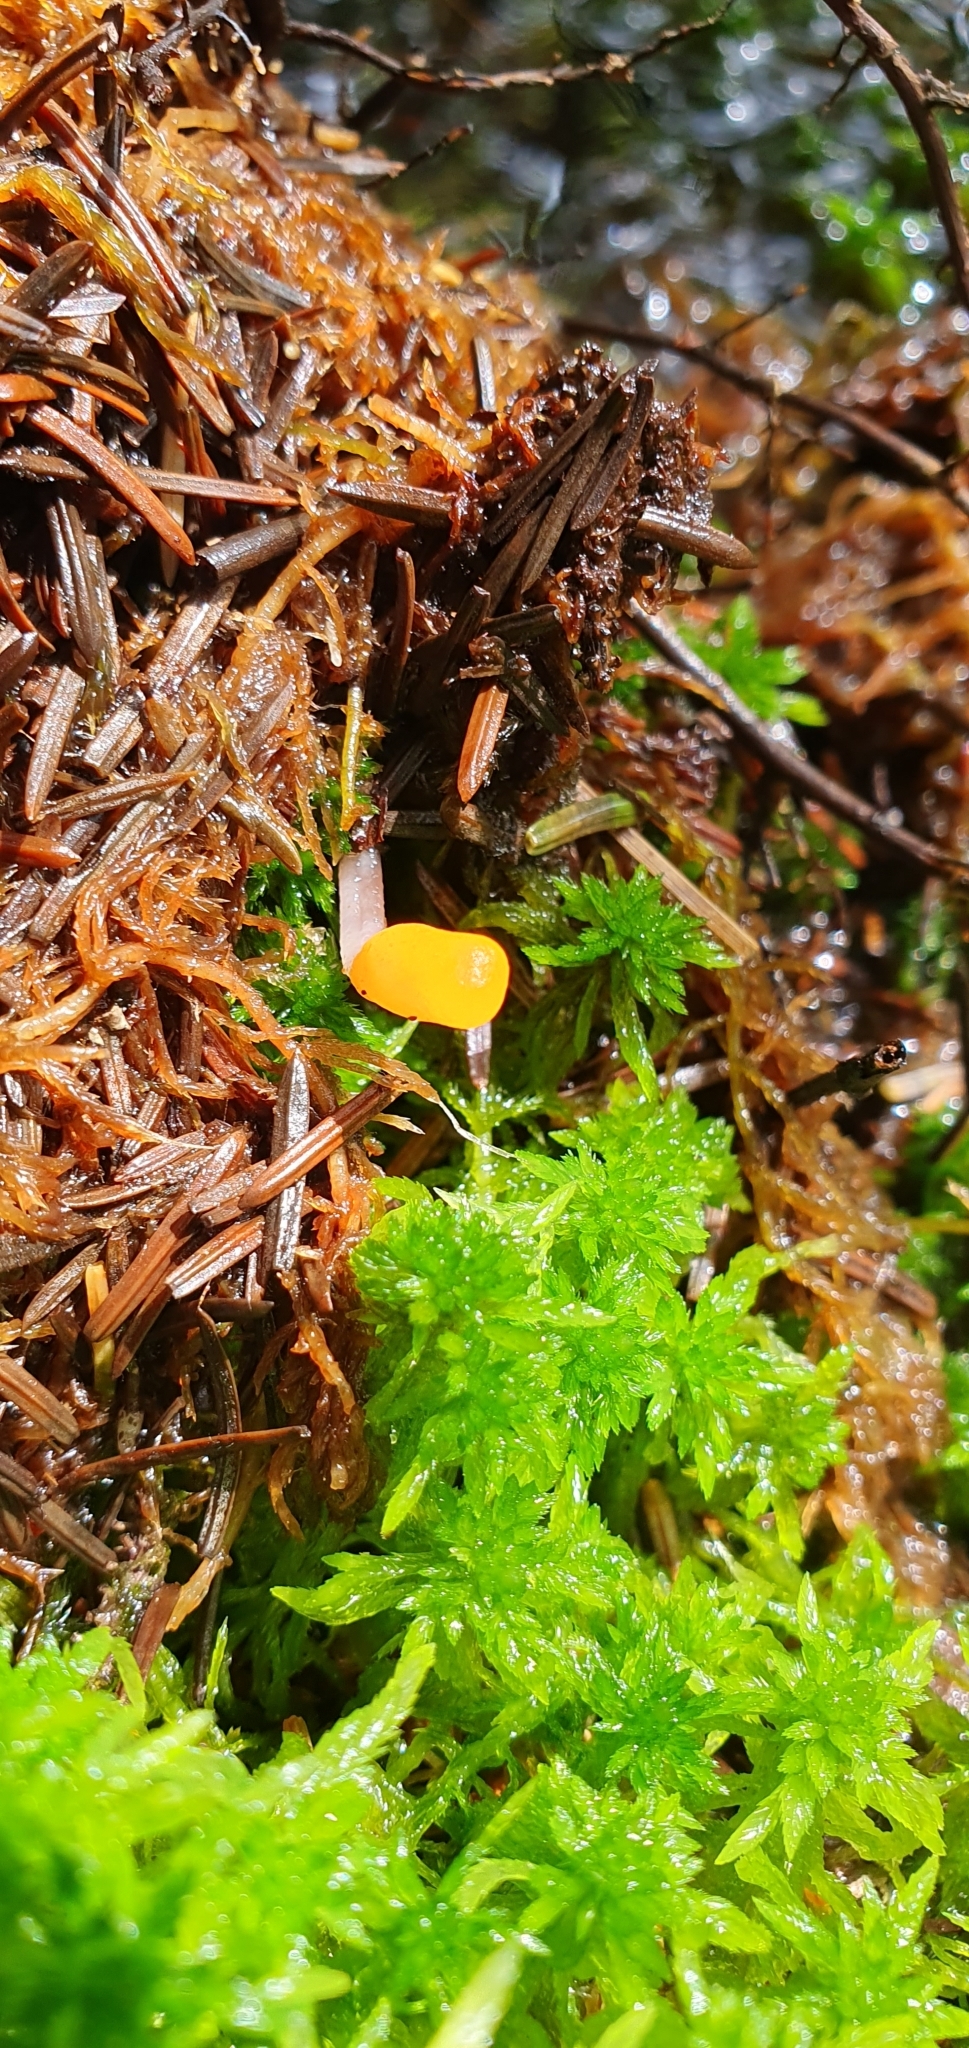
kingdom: Fungi
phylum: Ascomycota
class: Leotiomycetes
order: Helotiales
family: Cenangiaceae
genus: Mitrula
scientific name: Mitrula paludosa
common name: Bog beacon
